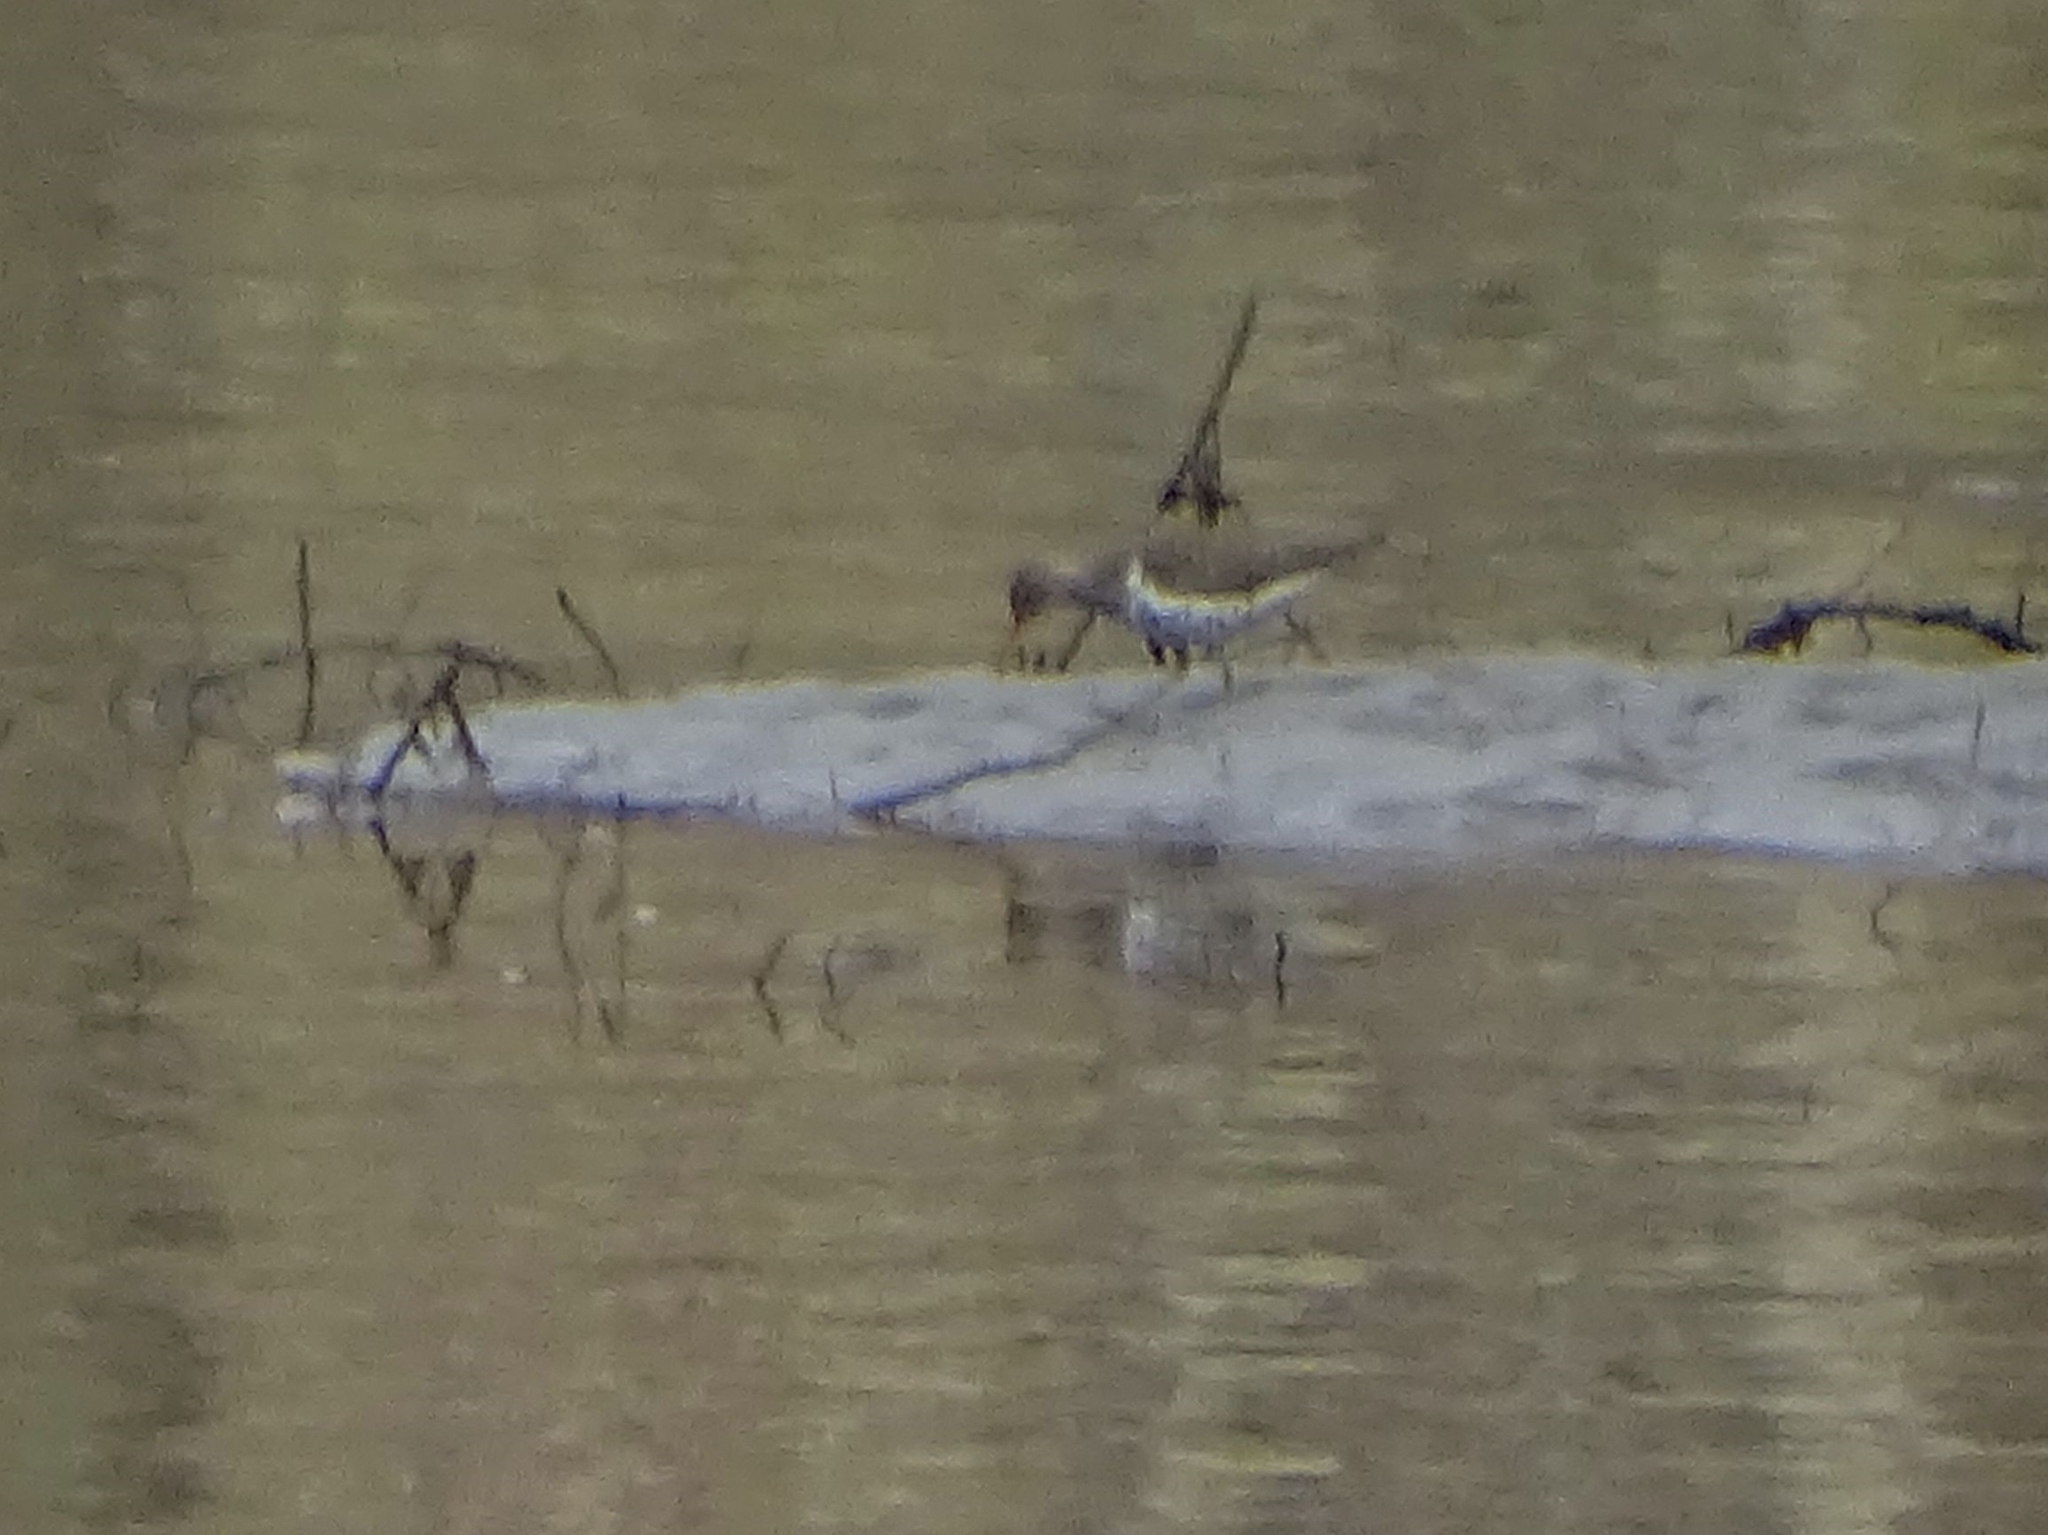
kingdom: Animalia
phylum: Chordata
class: Aves
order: Charadriiformes
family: Scolopacidae
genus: Actitis
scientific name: Actitis macularius
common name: Spotted sandpiper
